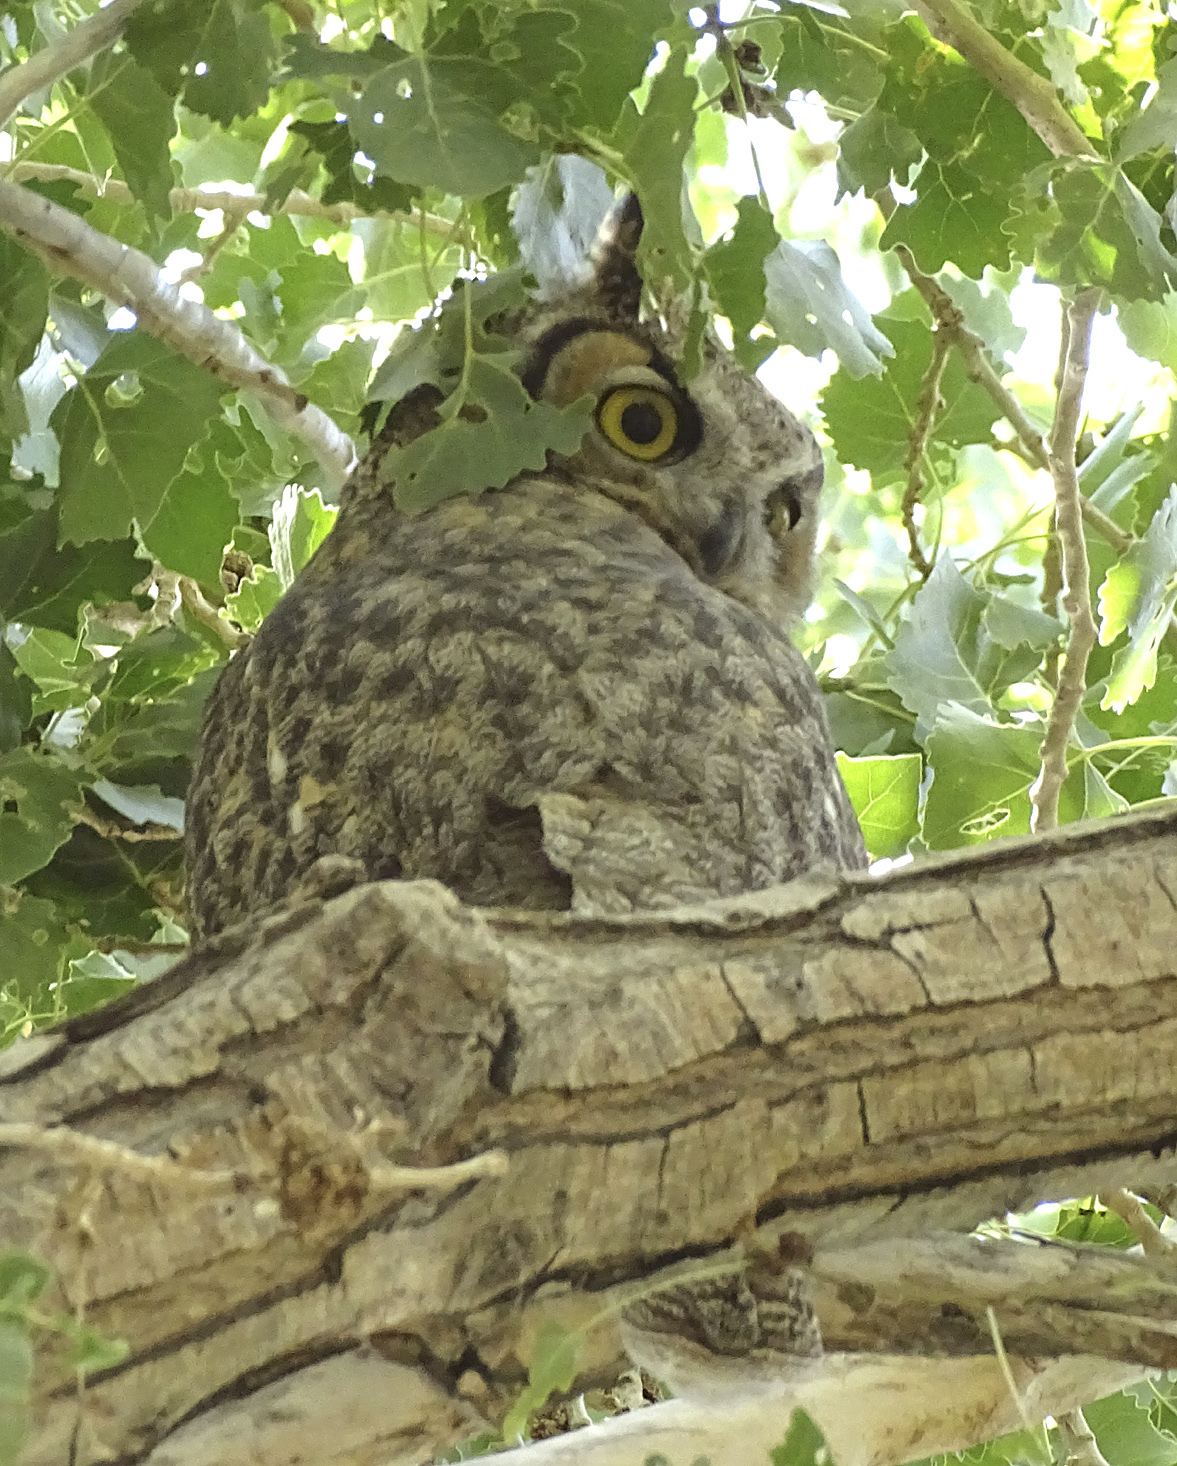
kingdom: Animalia
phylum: Chordata
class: Aves
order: Strigiformes
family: Strigidae
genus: Bubo
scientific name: Bubo virginianus
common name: Great horned owl
